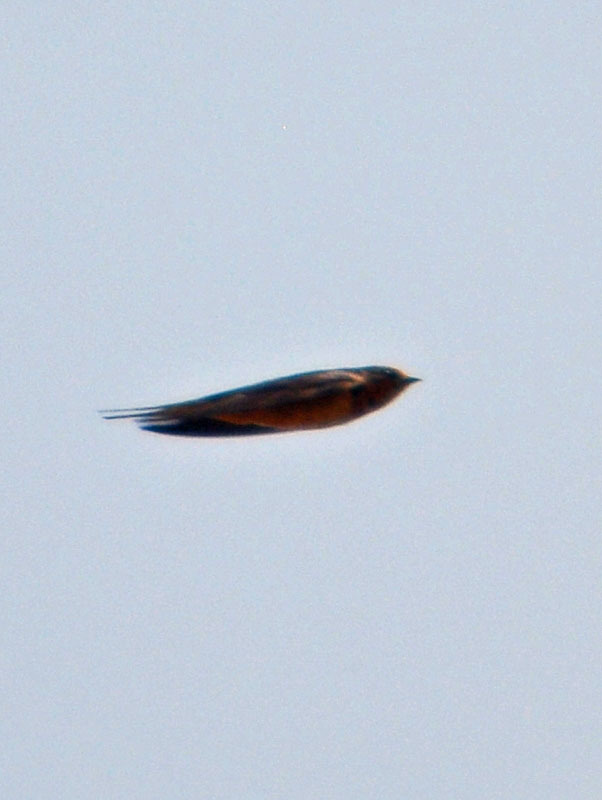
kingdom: Animalia
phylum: Chordata
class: Aves
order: Passeriformes
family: Hirundinidae
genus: Hirundo
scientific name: Hirundo rustica
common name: Barn swallow
